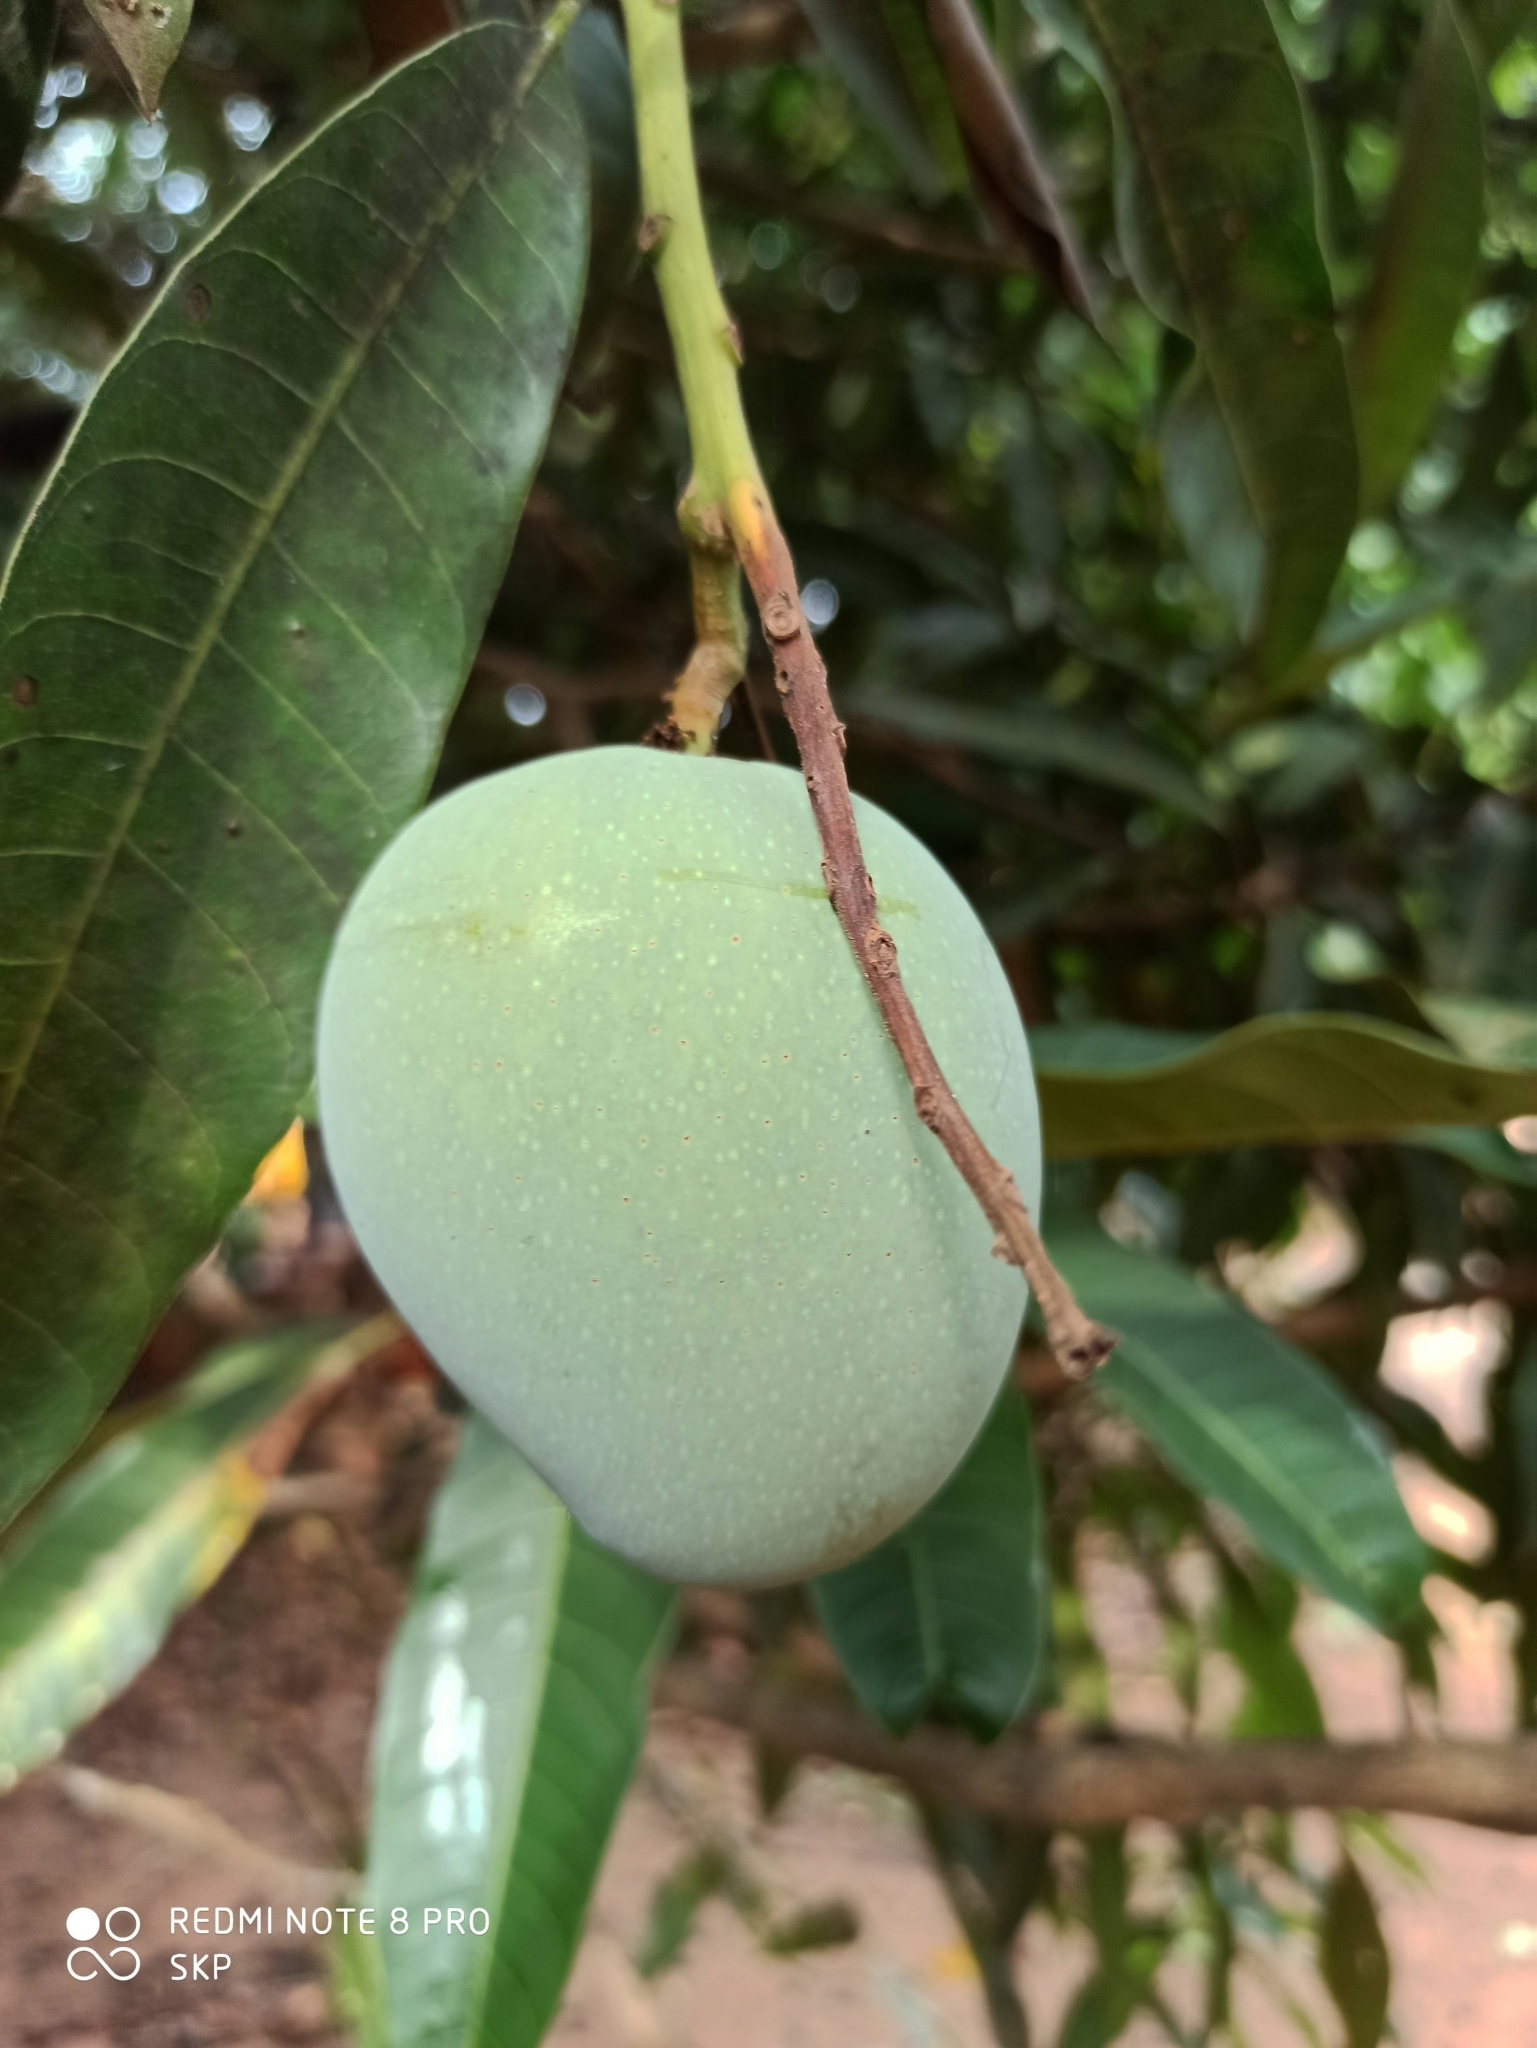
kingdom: Plantae
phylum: Tracheophyta
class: Magnoliopsida
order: Sapindales
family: Anacardiaceae
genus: Mangifera
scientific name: Mangifera indica
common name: Mango
